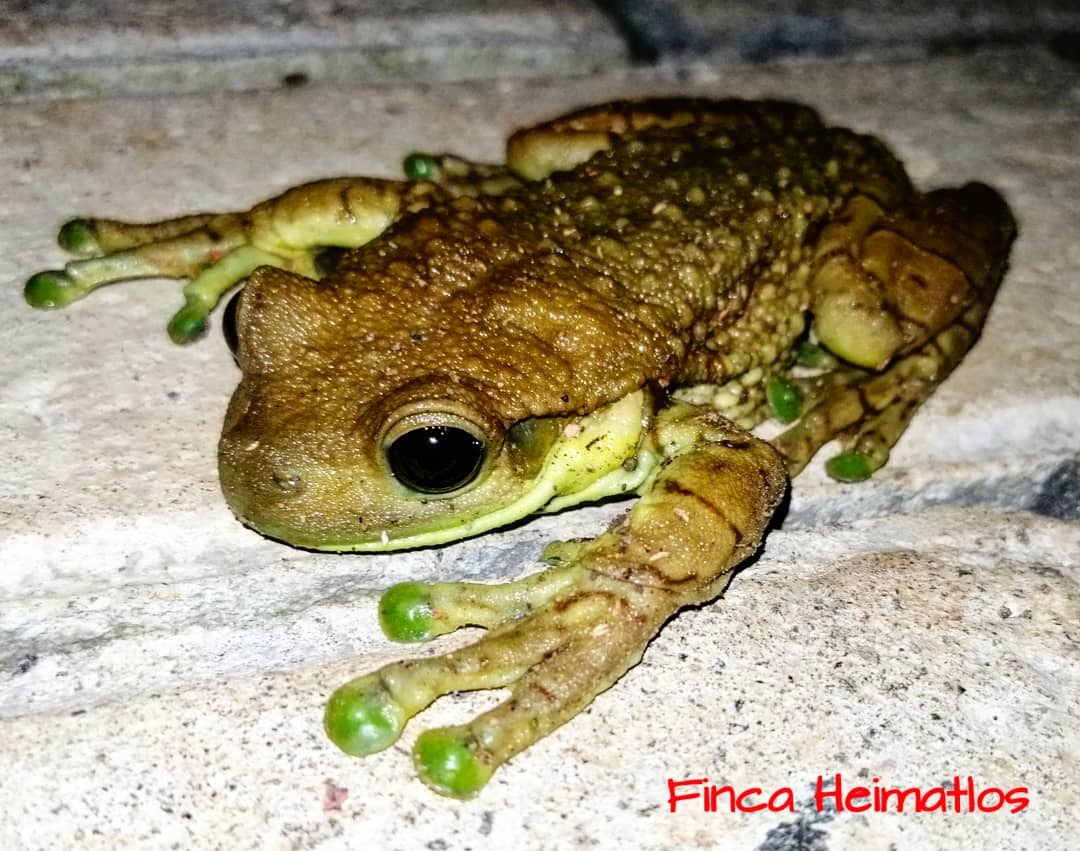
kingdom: Animalia
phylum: Chordata
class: Amphibia
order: Anura
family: Hylidae
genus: Trachycephalus
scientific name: Trachycephalus macrotis
